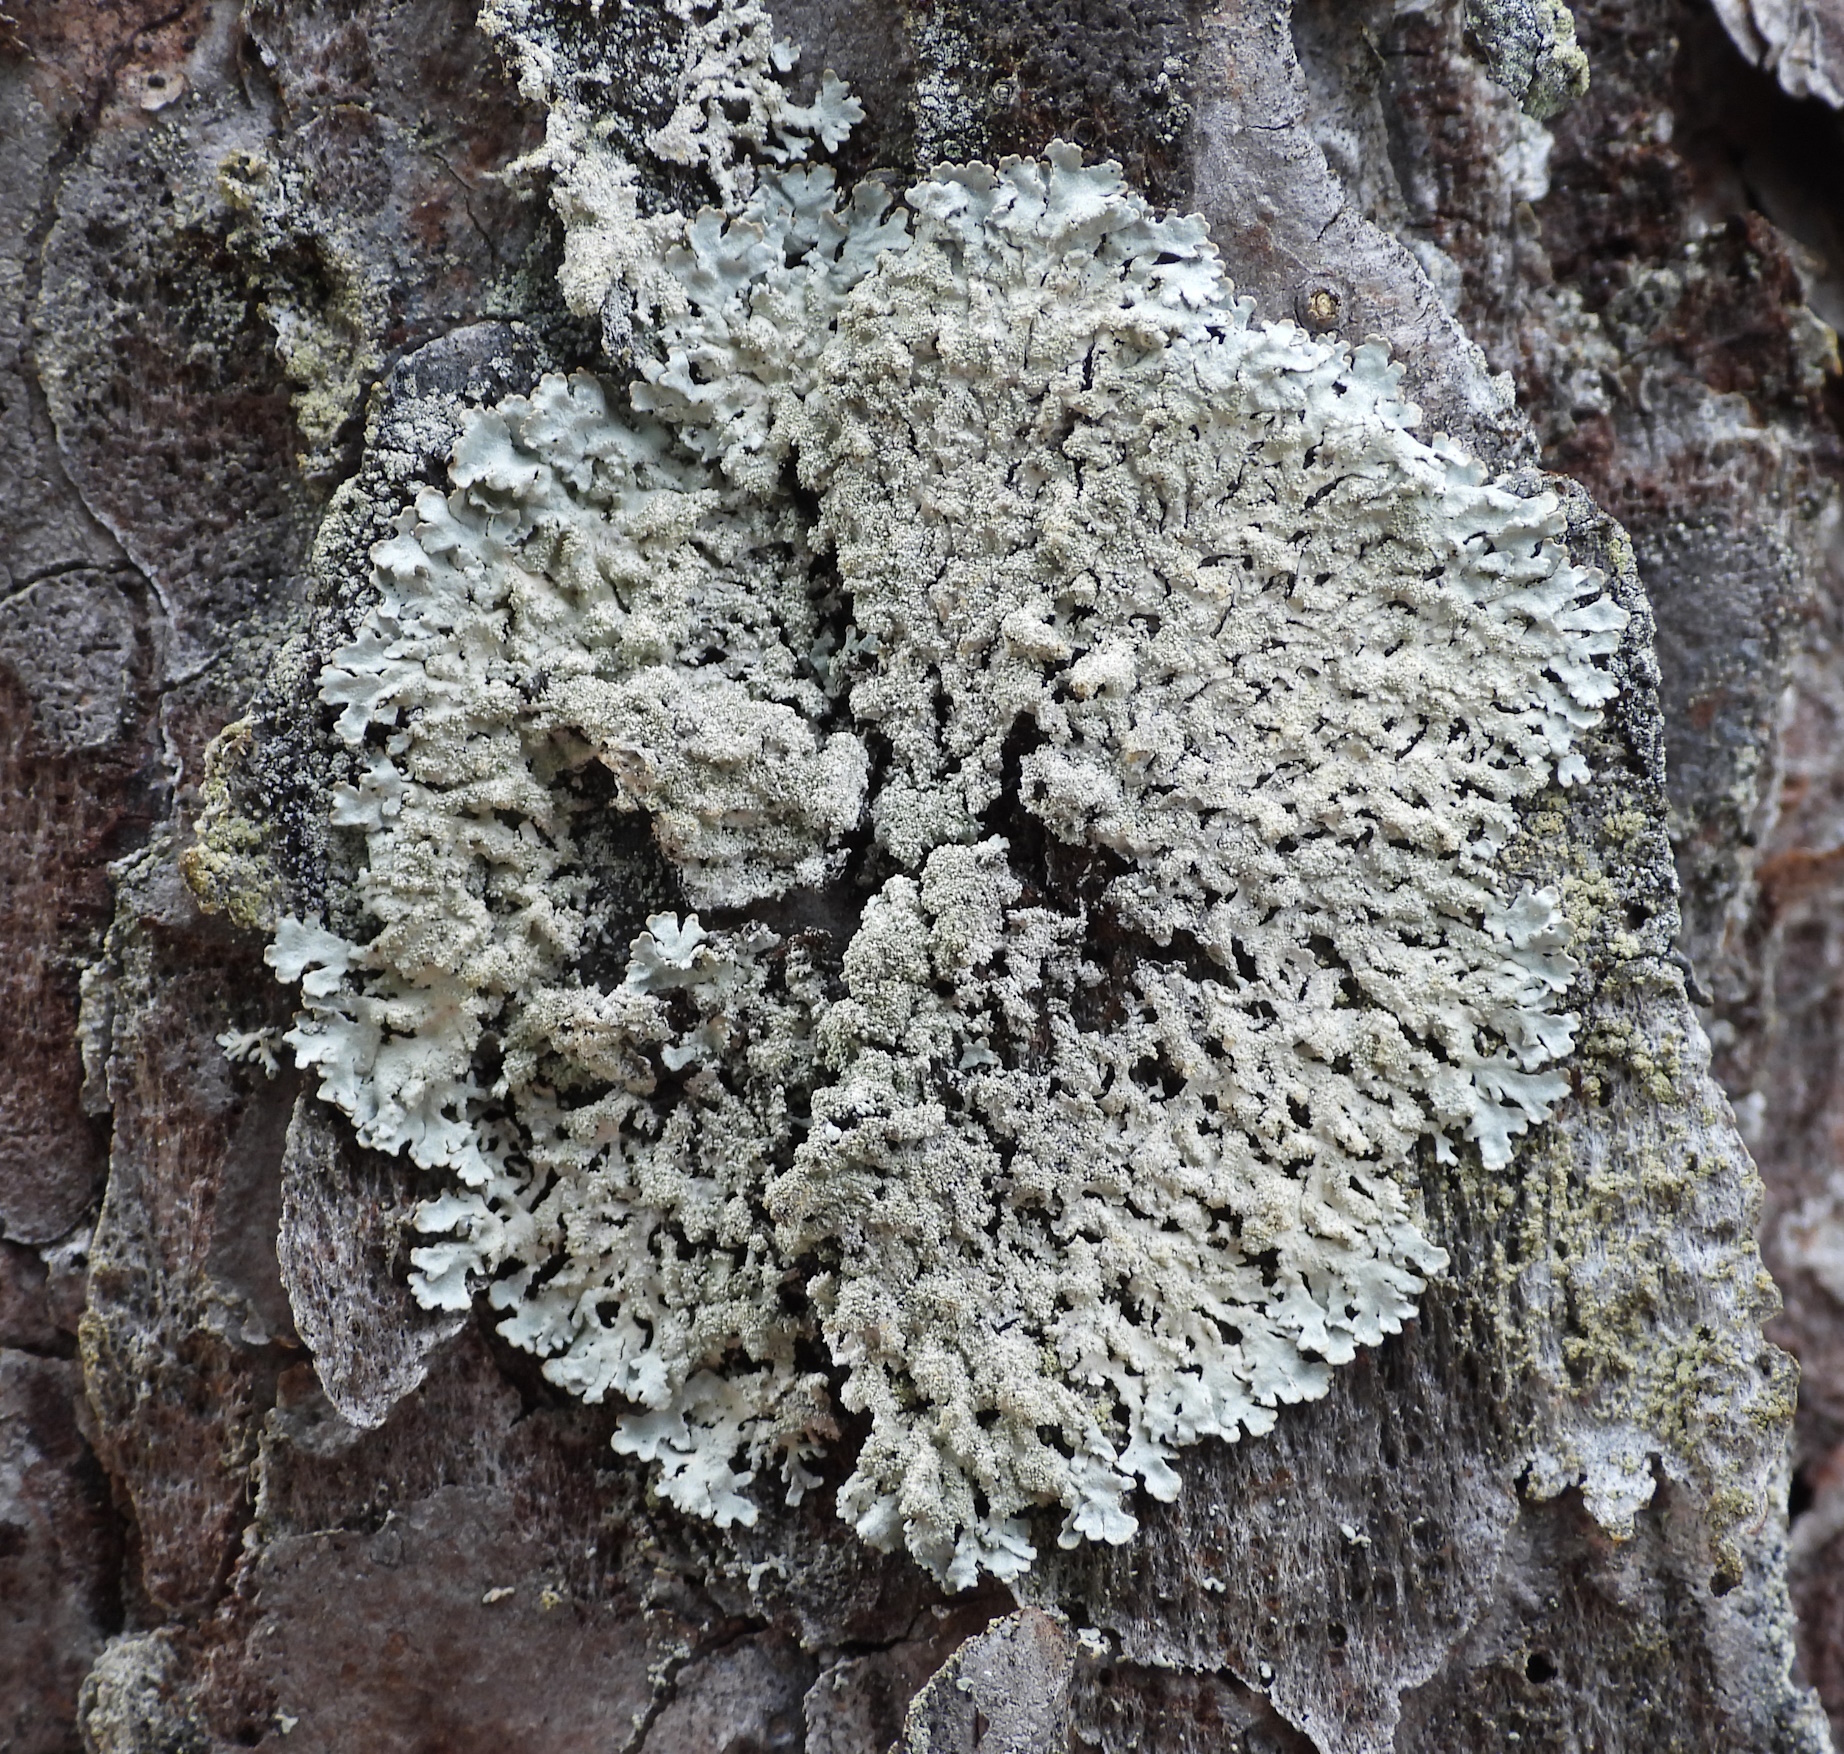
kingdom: Fungi
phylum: Ascomycota
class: Lecanoromycetes
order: Lecanorales
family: Parmeliaceae
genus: Imshaugia
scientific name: Imshaugia aleurites
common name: Salted starburst lichen
